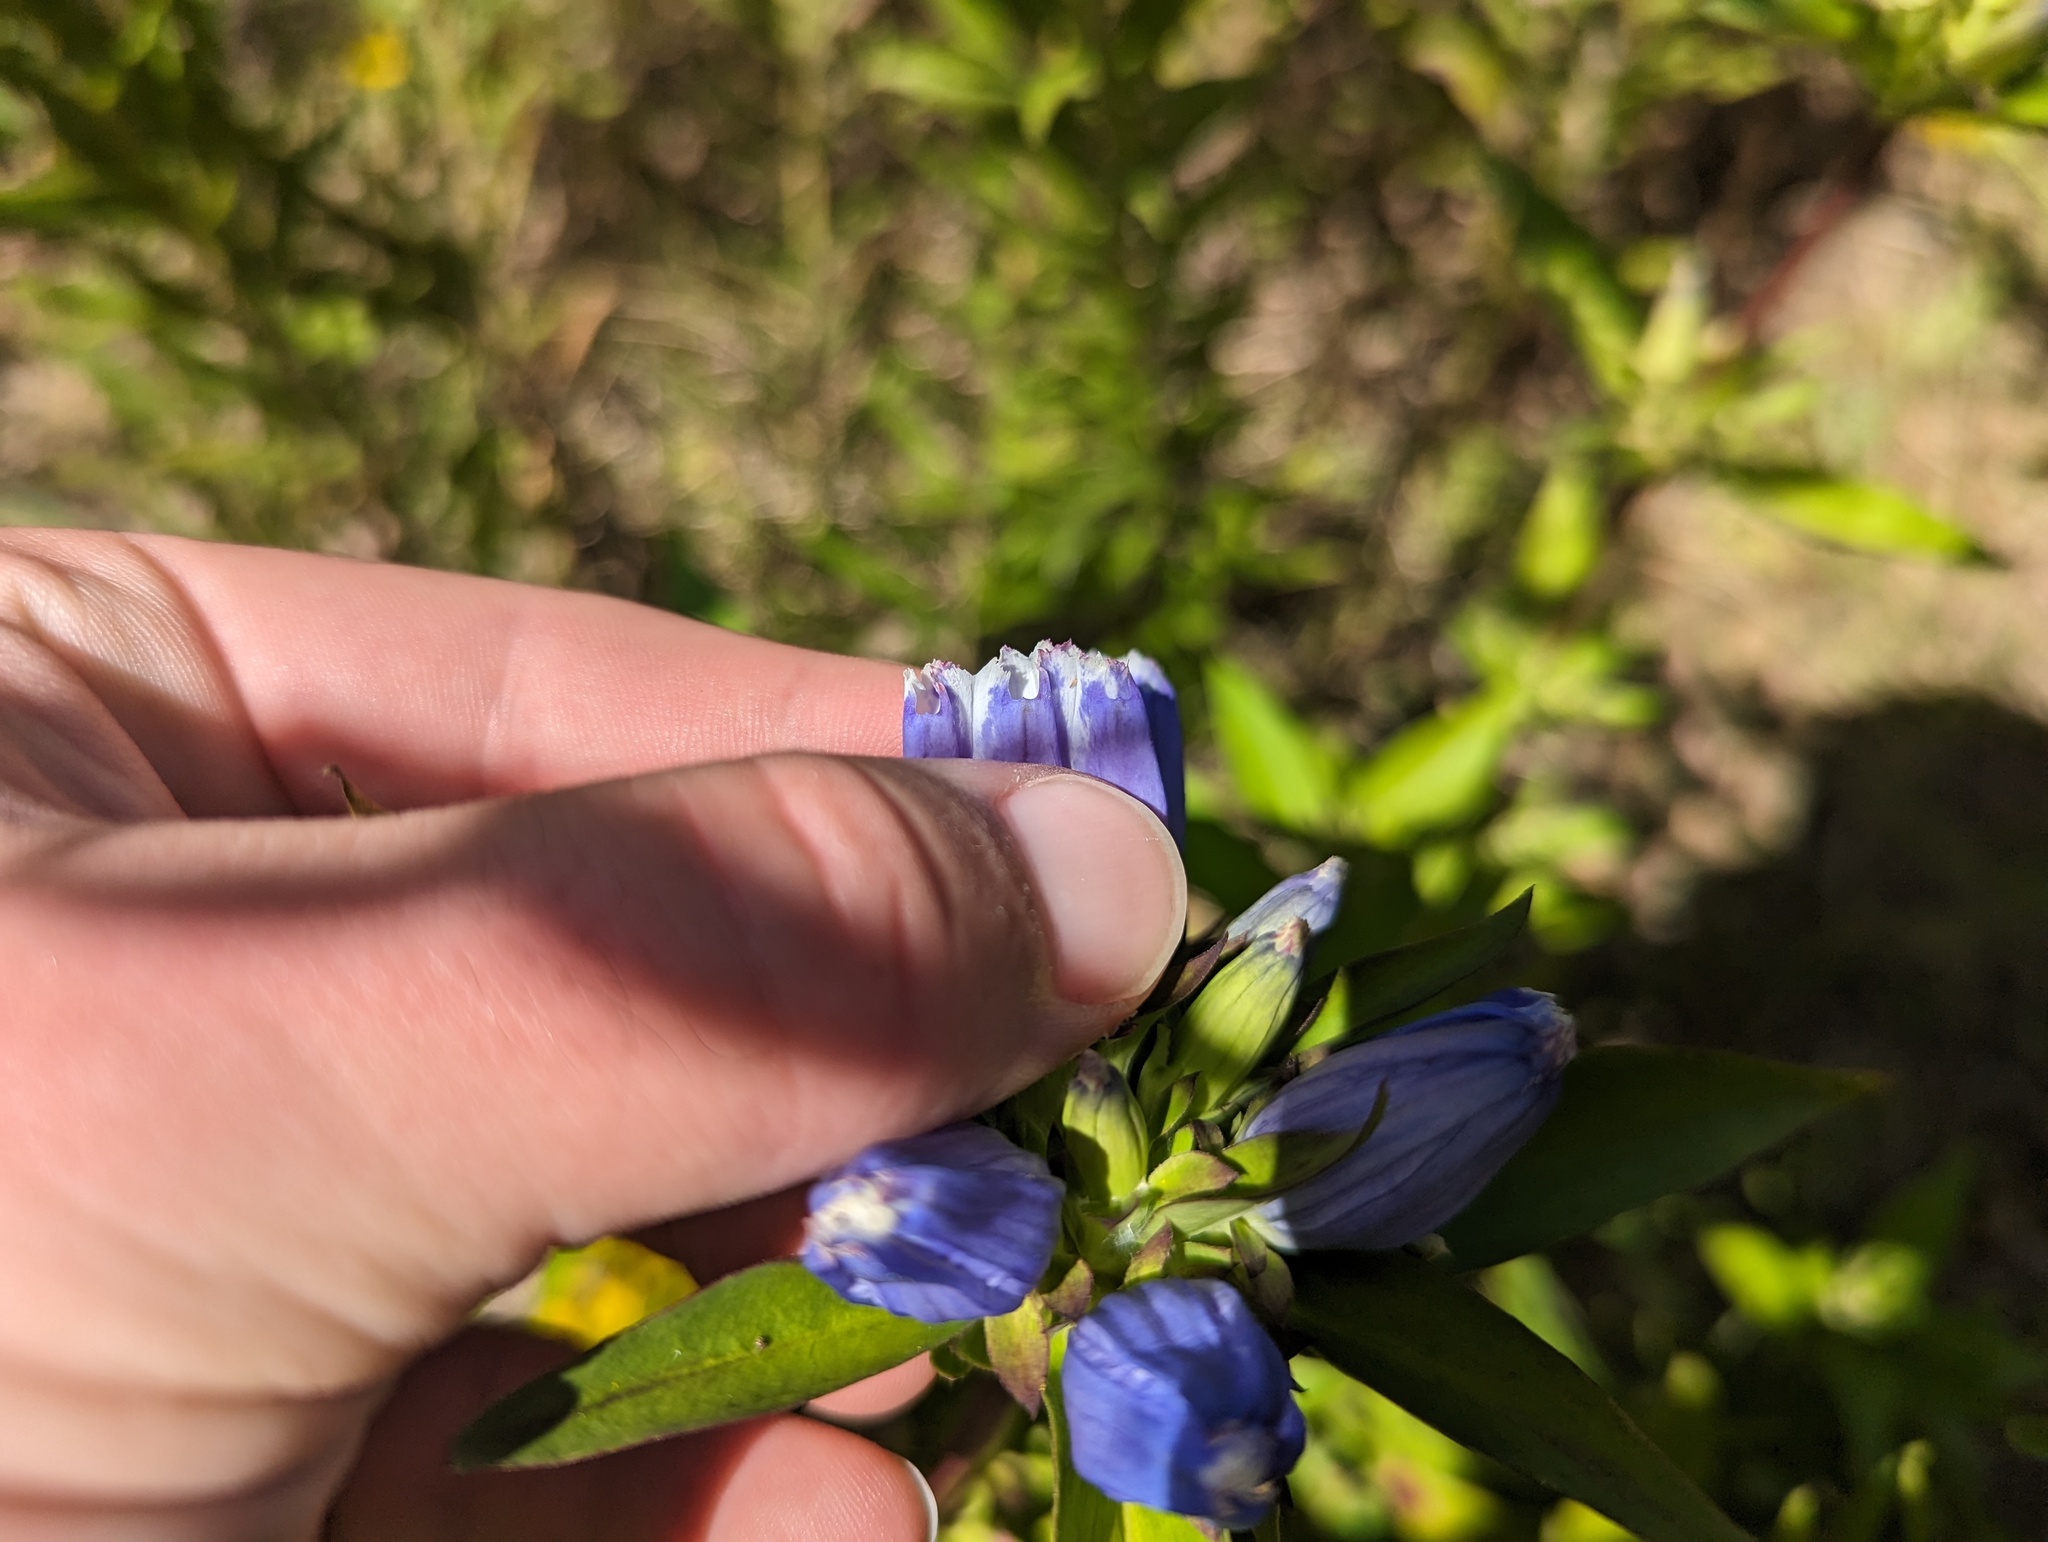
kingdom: Plantae
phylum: Tracheophyta
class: Magnoliopsida
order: Gentianales
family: Gentianaceae
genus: Gentiana
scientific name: Gentiana andrewsii
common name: Bottle gentian
